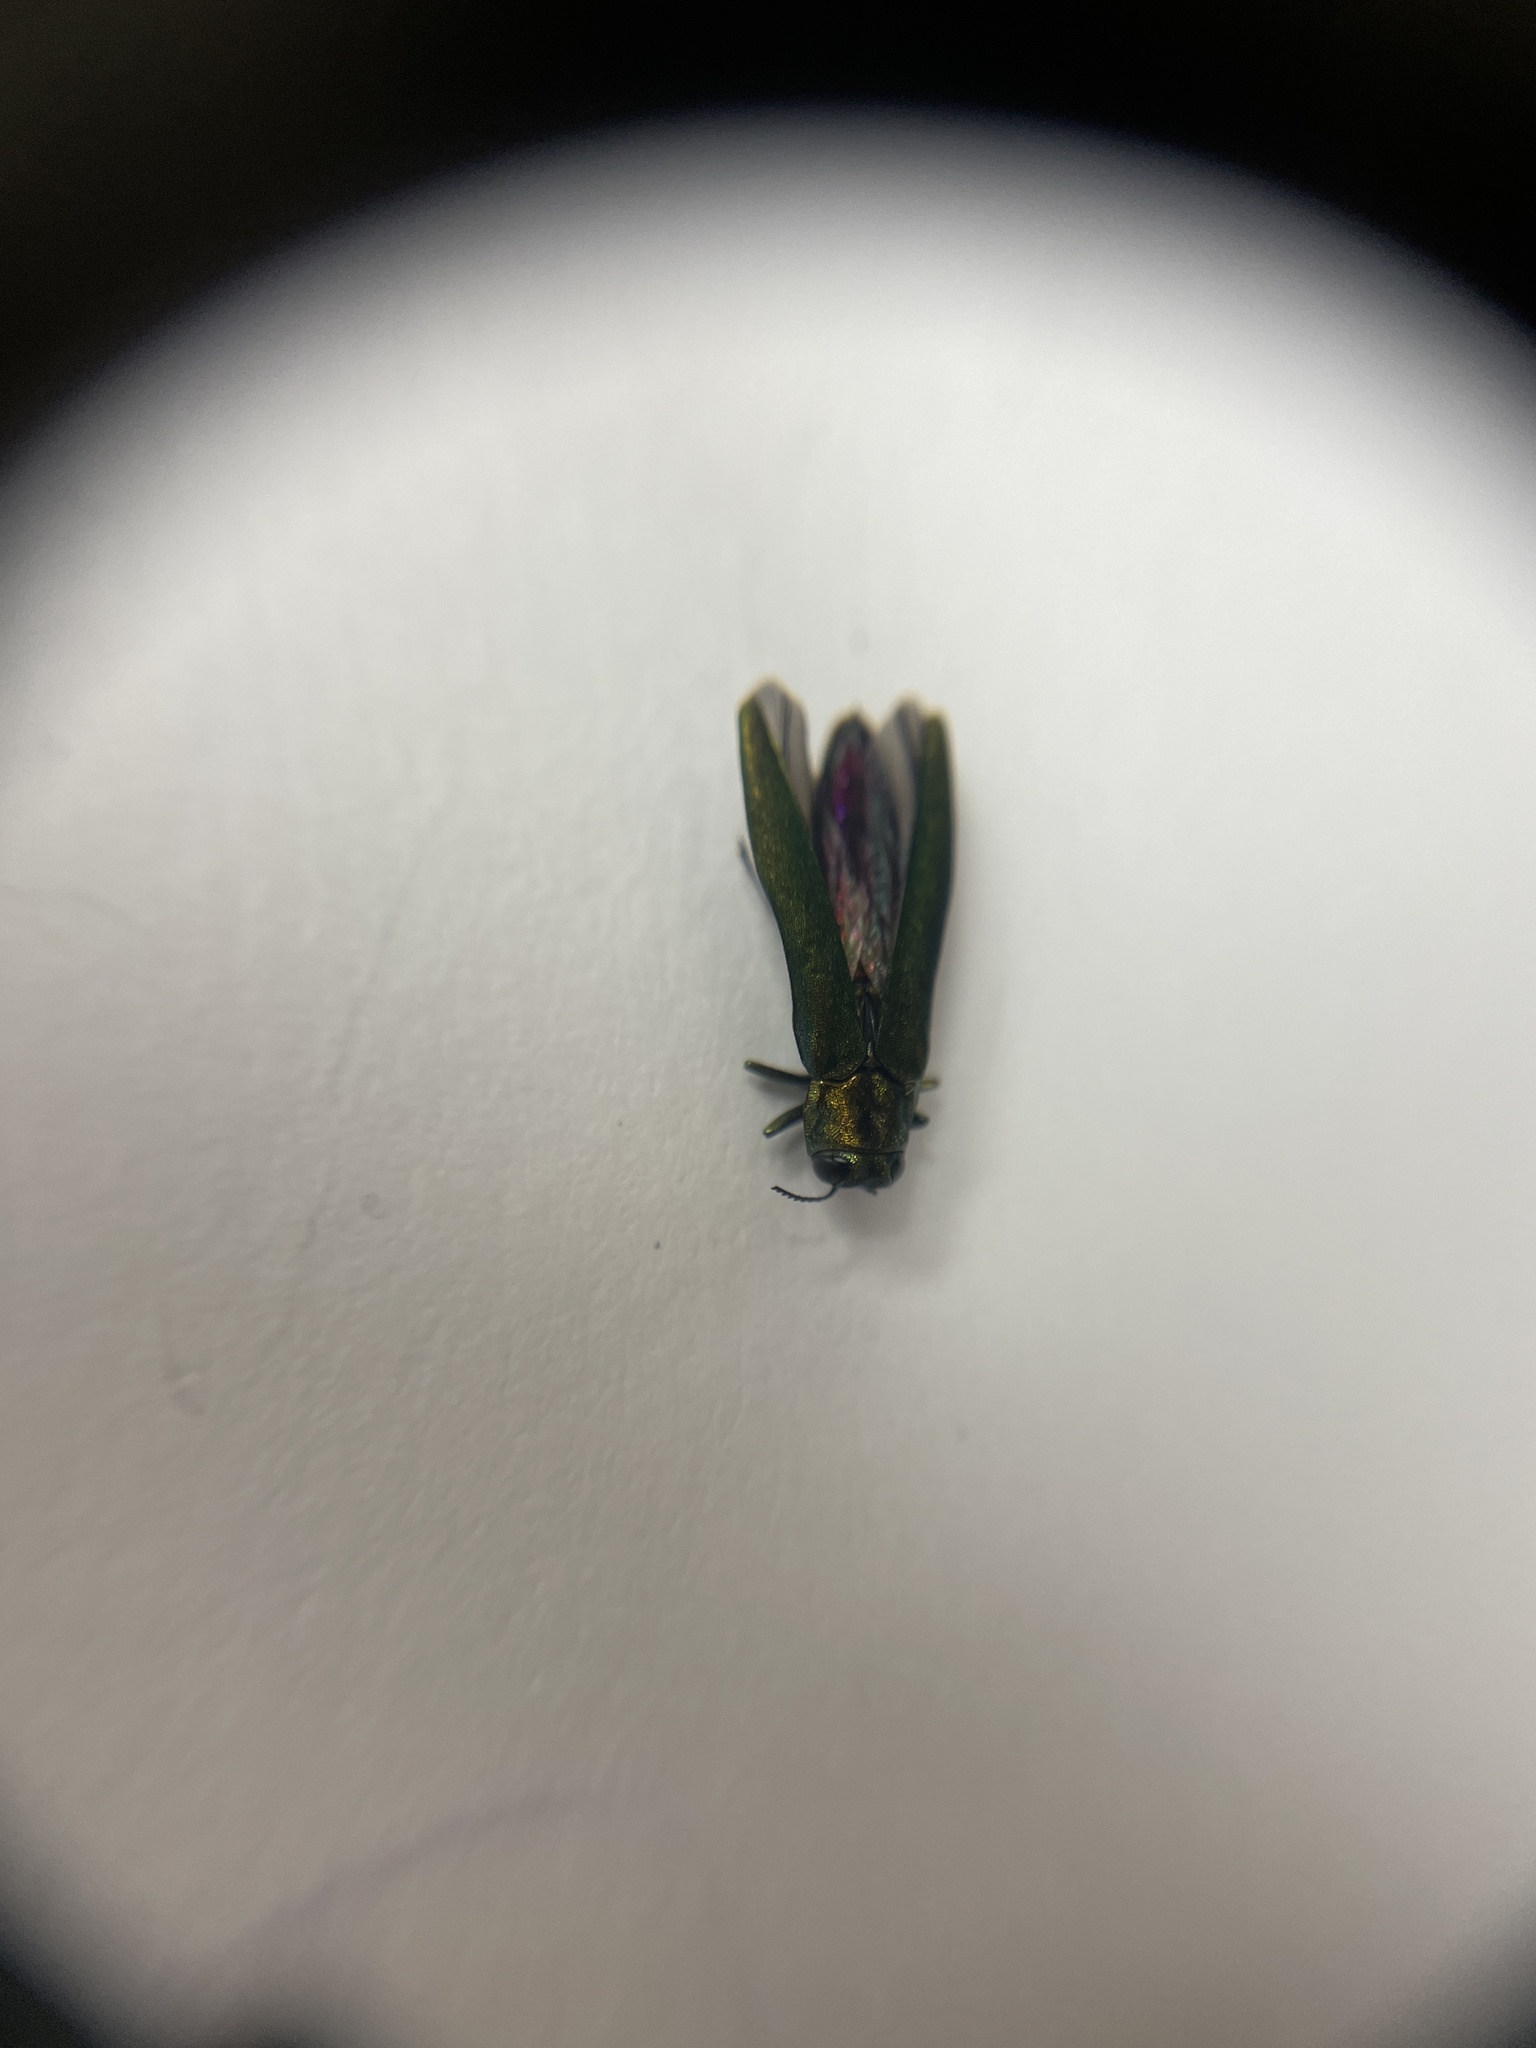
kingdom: Animalia
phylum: Arthropoda
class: Insecta
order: Coleoptera
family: Buprestidae
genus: Agrilus
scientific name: Agrilus planipennis
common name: Emerald ash borer
